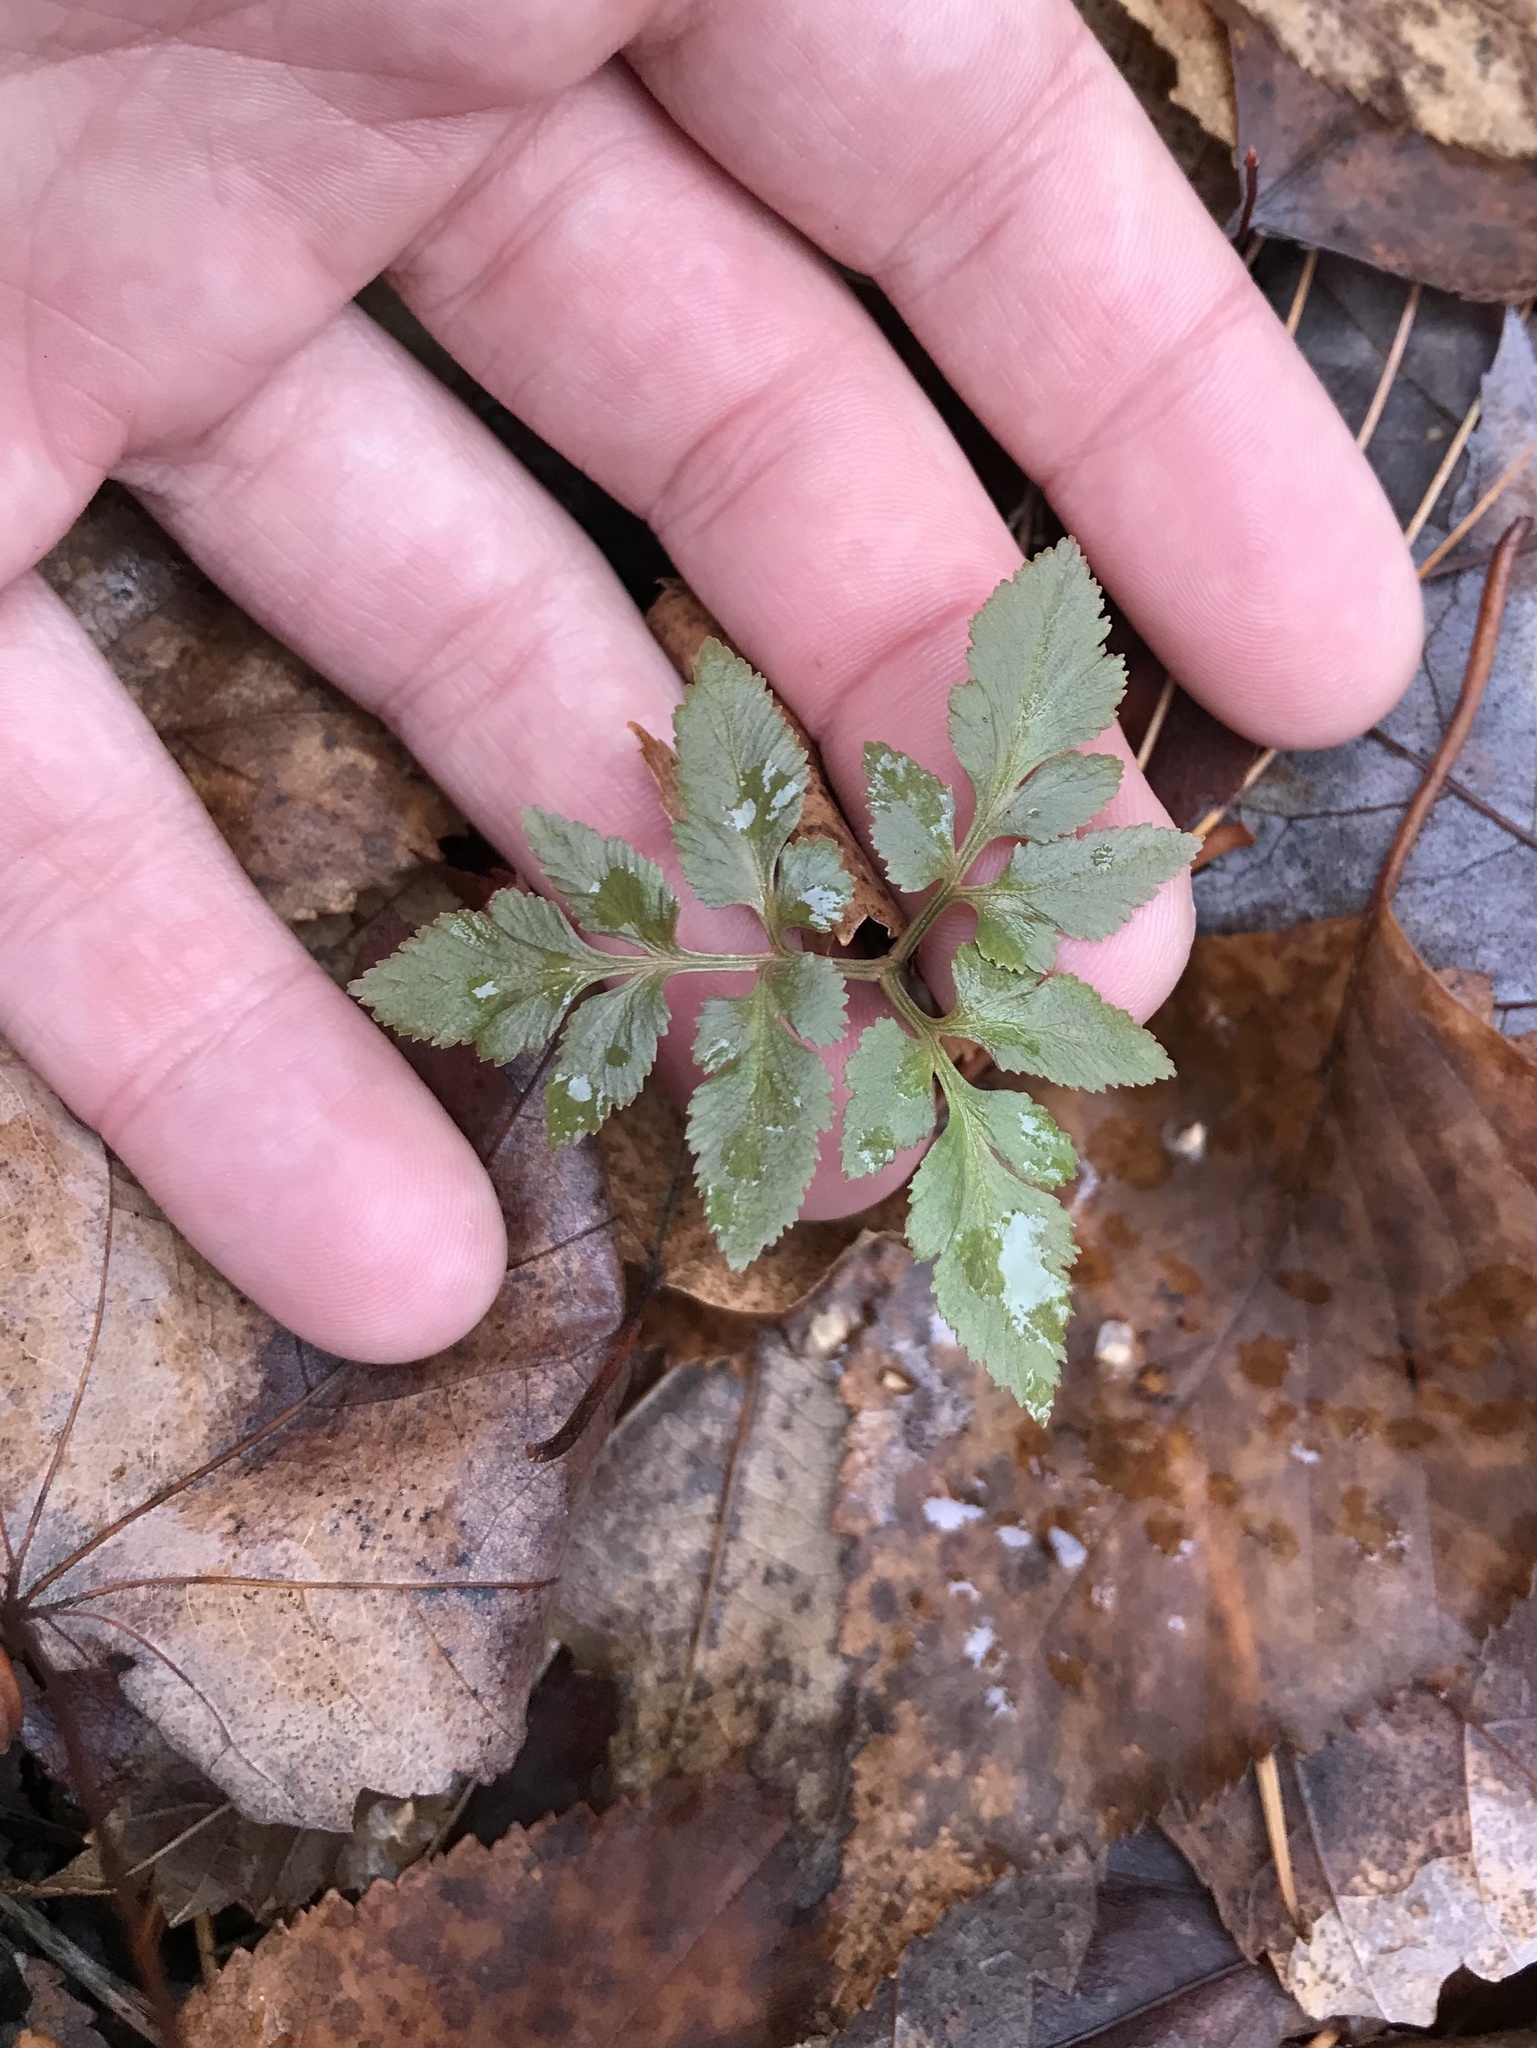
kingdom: Plantae
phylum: Tracheophyta
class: Polypodiopsida
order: Ophioglossales
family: Ophioglossaceae
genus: Sceptridium
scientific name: Sceptridium dissectum
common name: Cut-leaved grapefern
